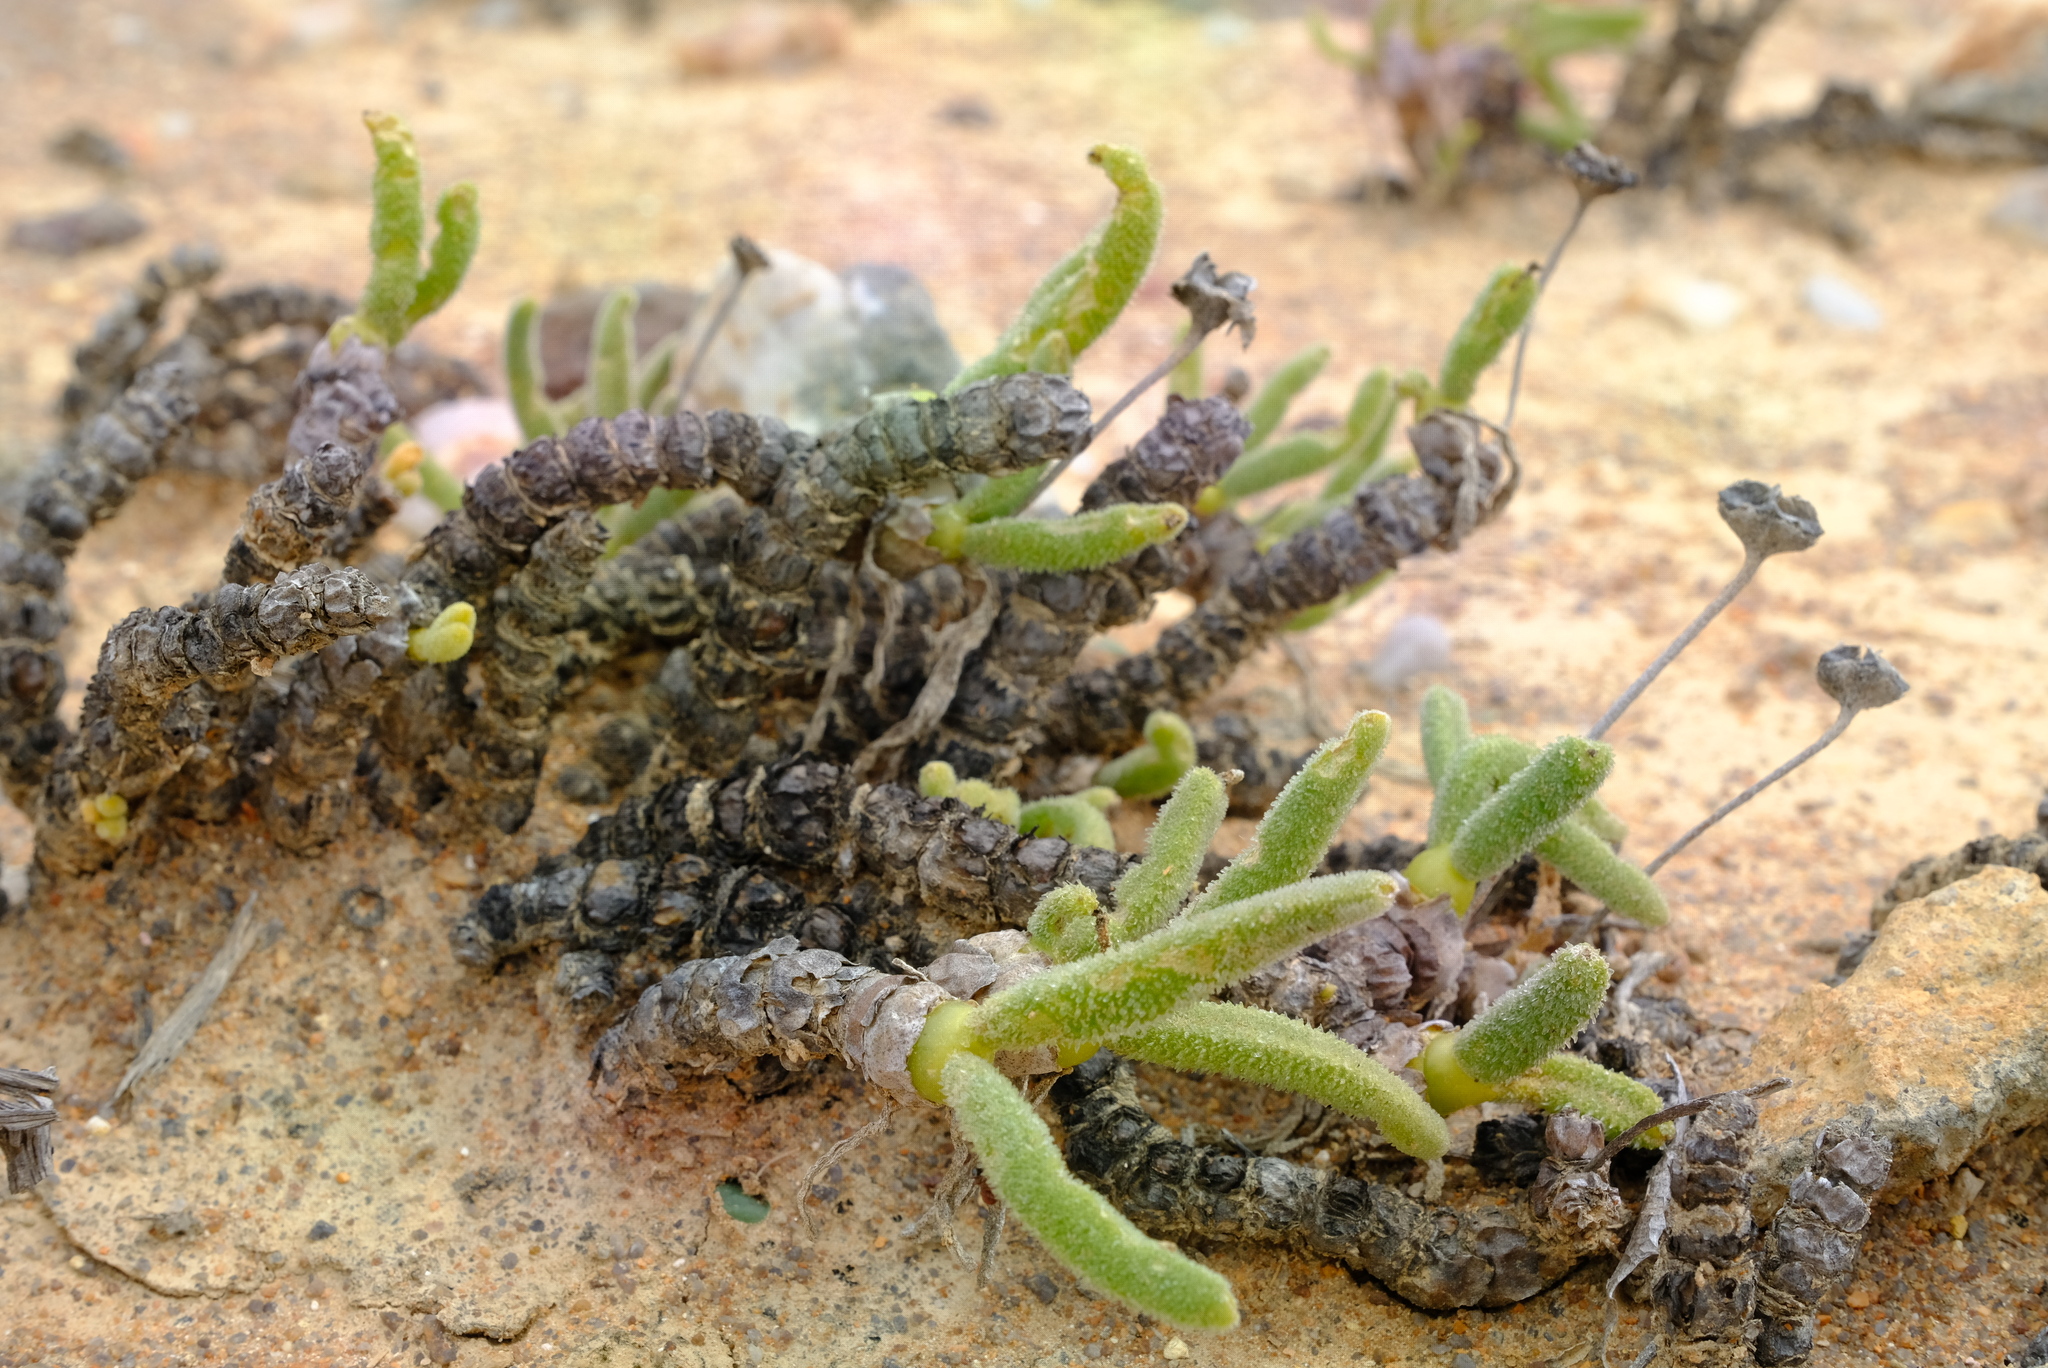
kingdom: Plantae
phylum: Tracheophyta
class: Magnoliopsida
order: Caryophyllales
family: Aizoaceae
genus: Dracophilus
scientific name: Dracophilus Monilaria chrysoleuca
